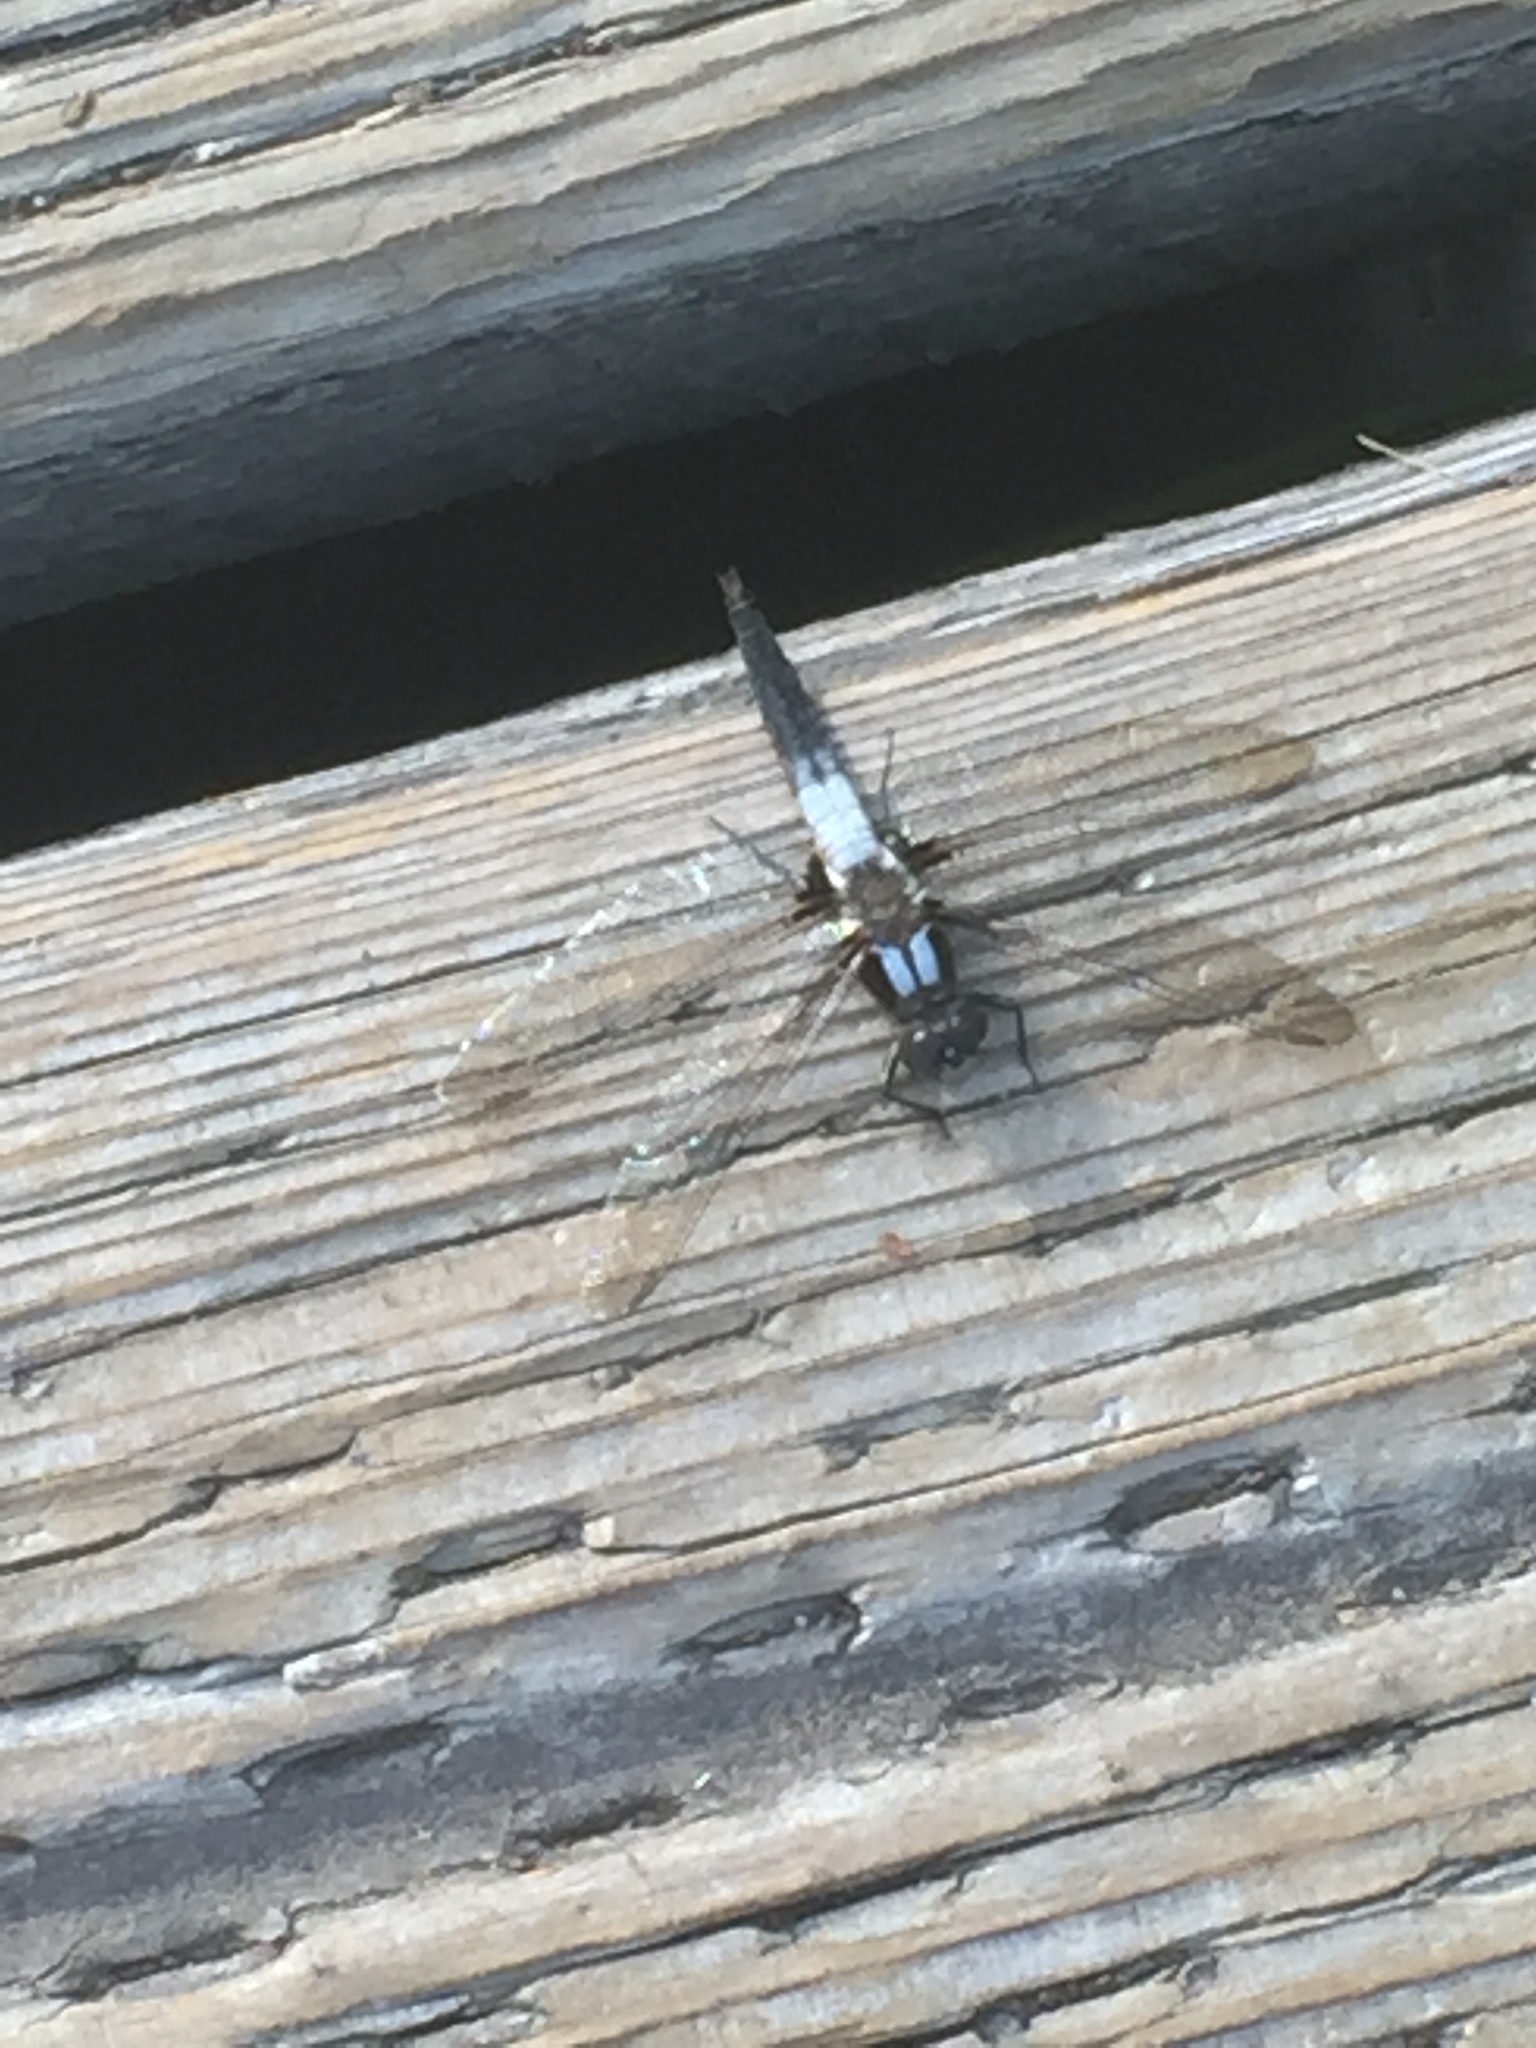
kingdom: Animalia
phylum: Arthropoda
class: Insecta
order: Odonata
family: Libellulidae
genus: Ladona
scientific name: Ladona julia
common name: Chalk-fronted corporal
